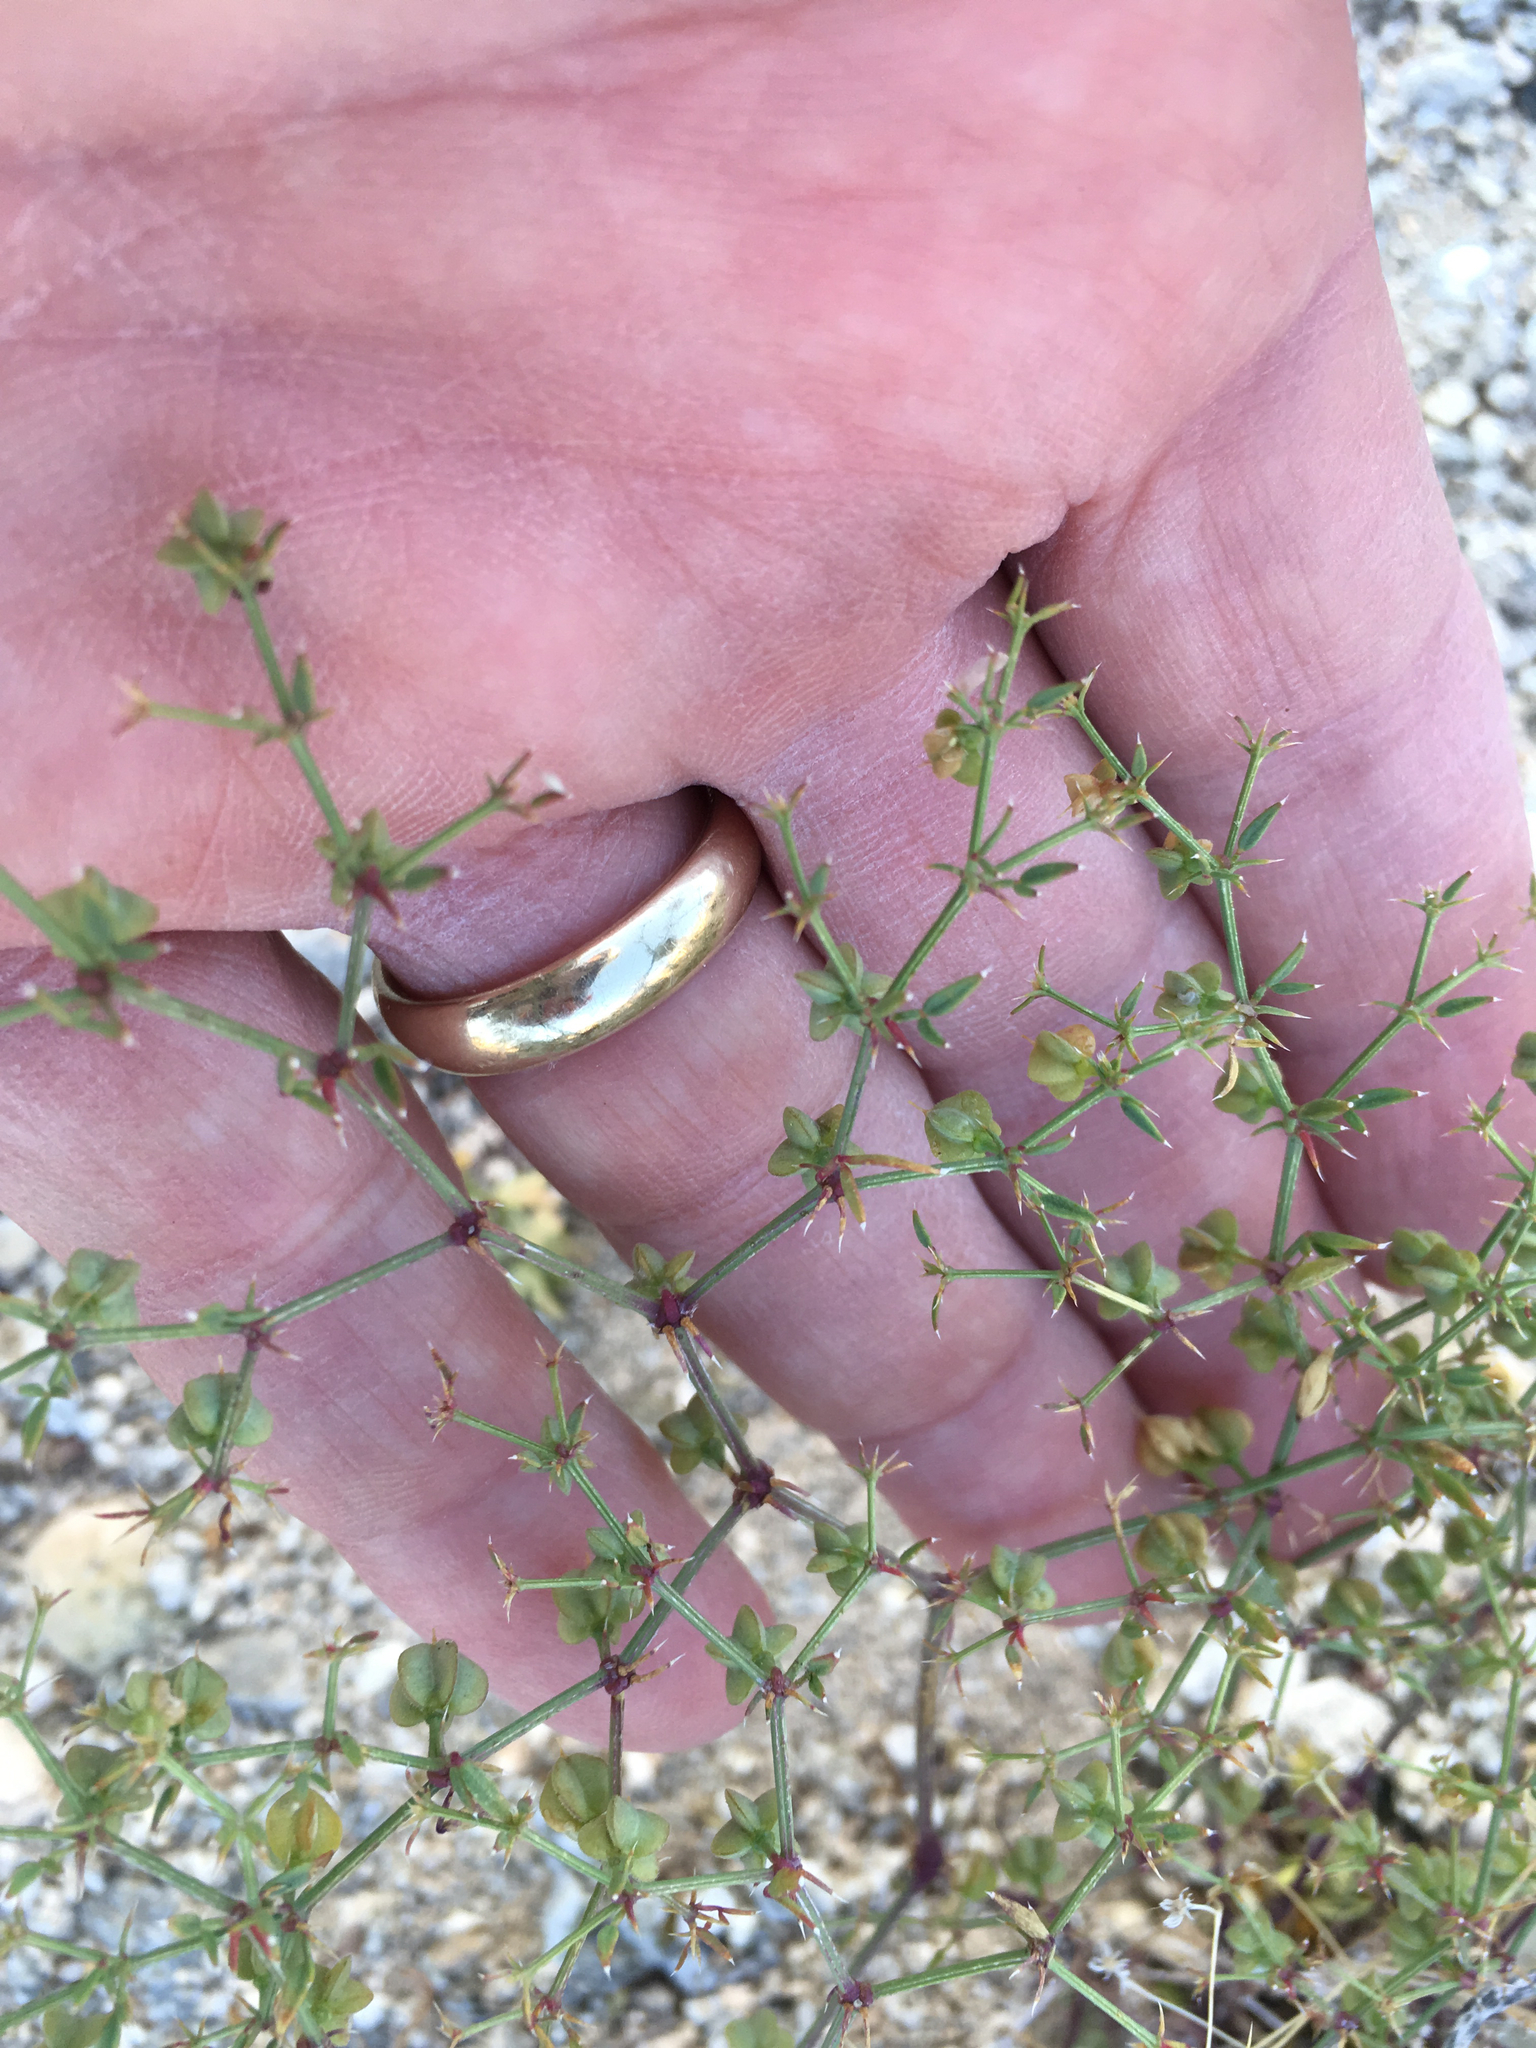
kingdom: Plantae
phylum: Tracheophyta
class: Magnoliopsida
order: Zygophyllales
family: Zygophyllaceae
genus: Fagonia
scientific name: Fagonia laevis
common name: California fagonbush
